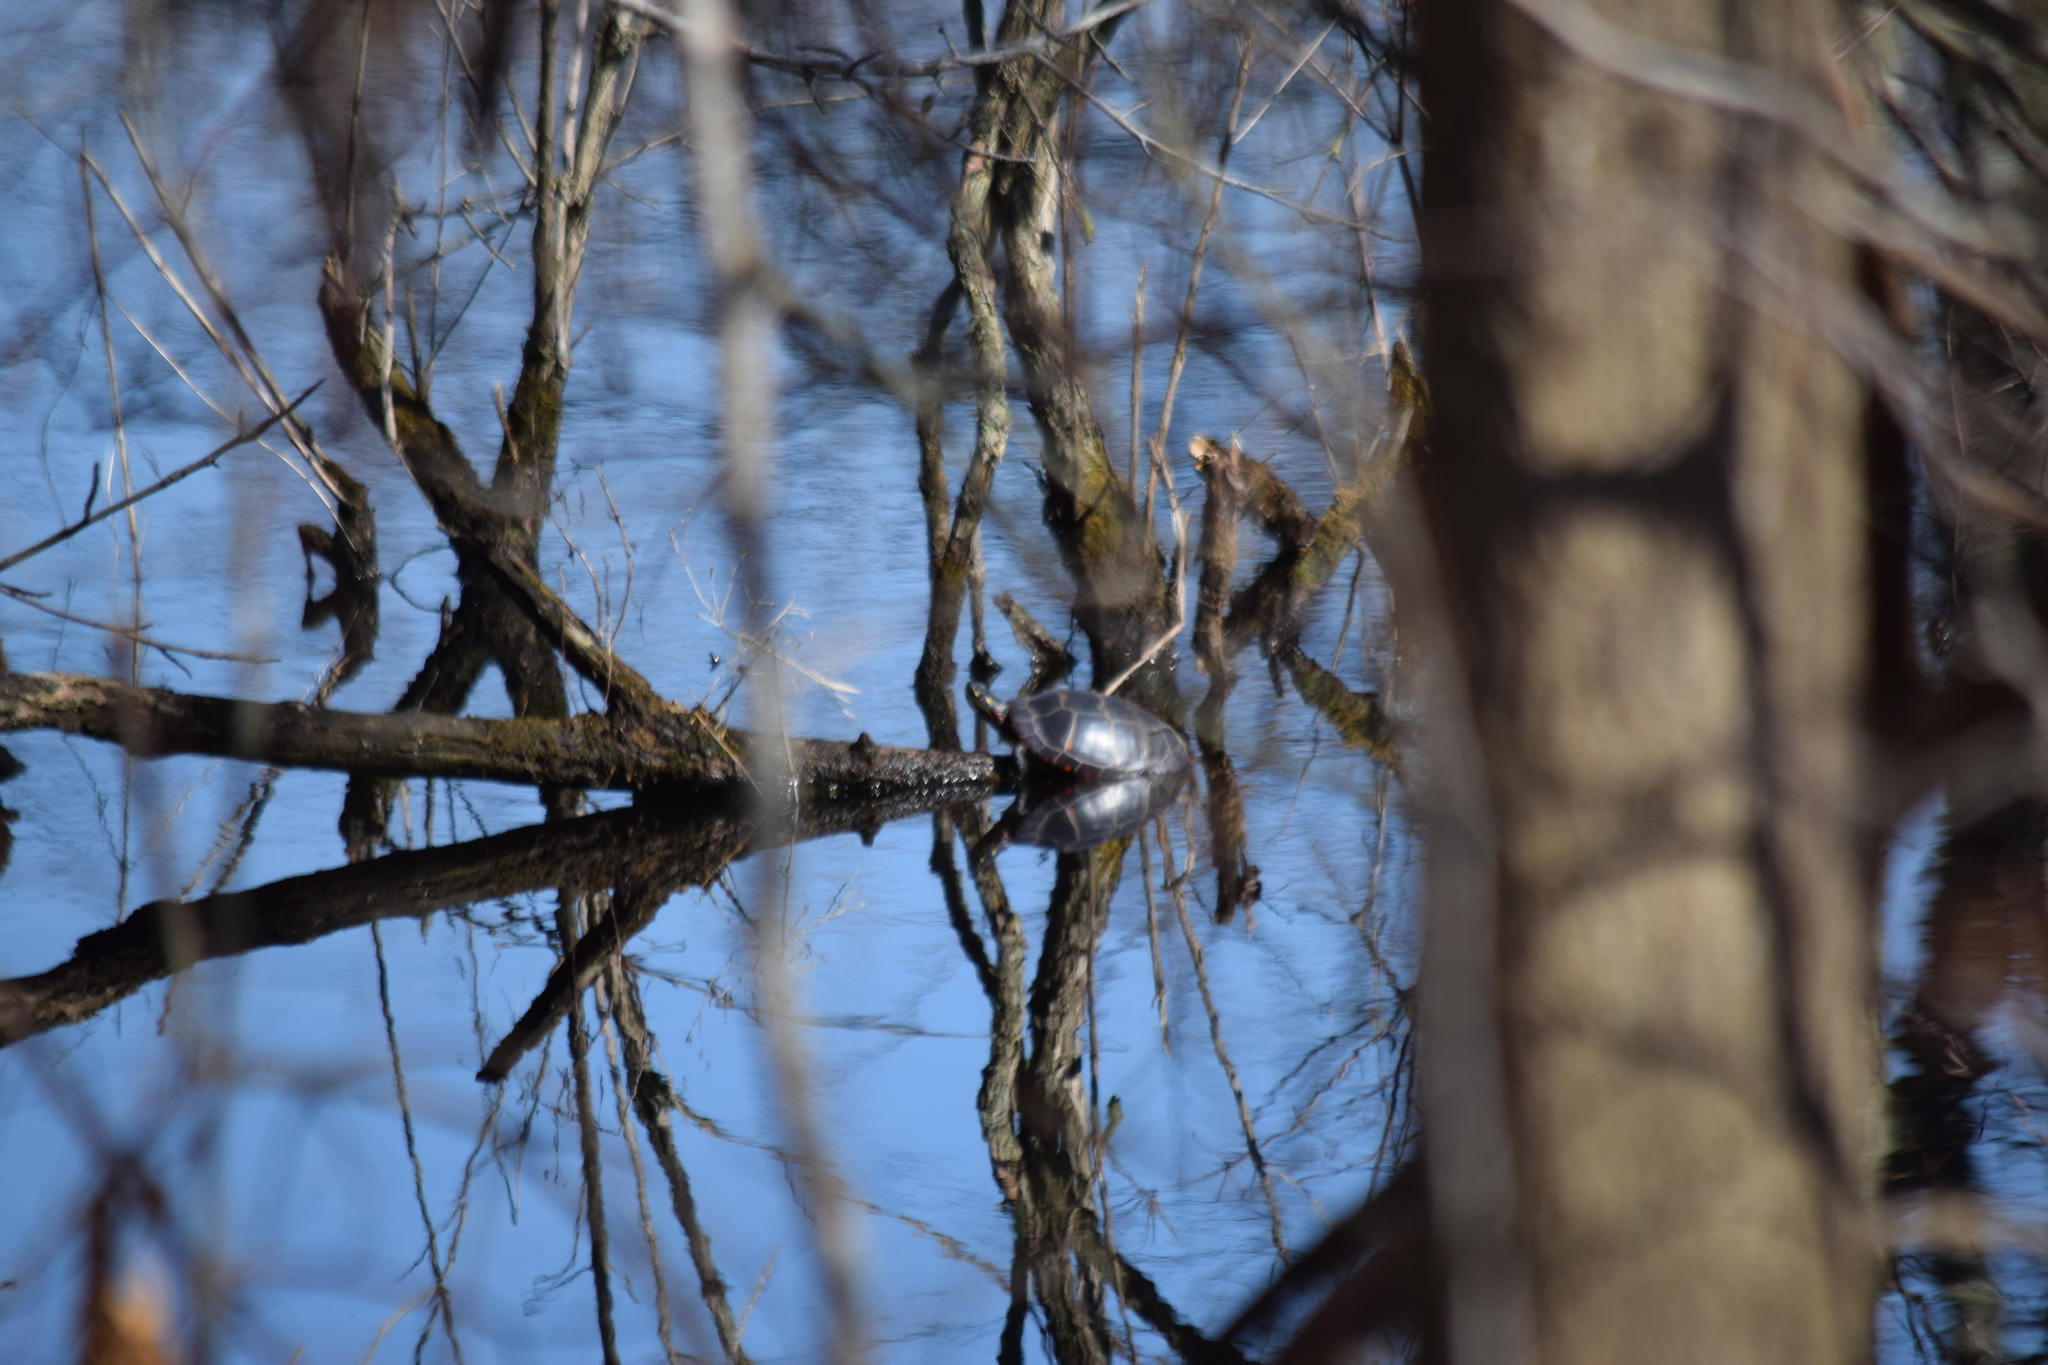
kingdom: Animalia
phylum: Chordata
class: Testudines
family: Emydidae
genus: Chrysemys
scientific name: Chrysemys picta
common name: Painted turtle
